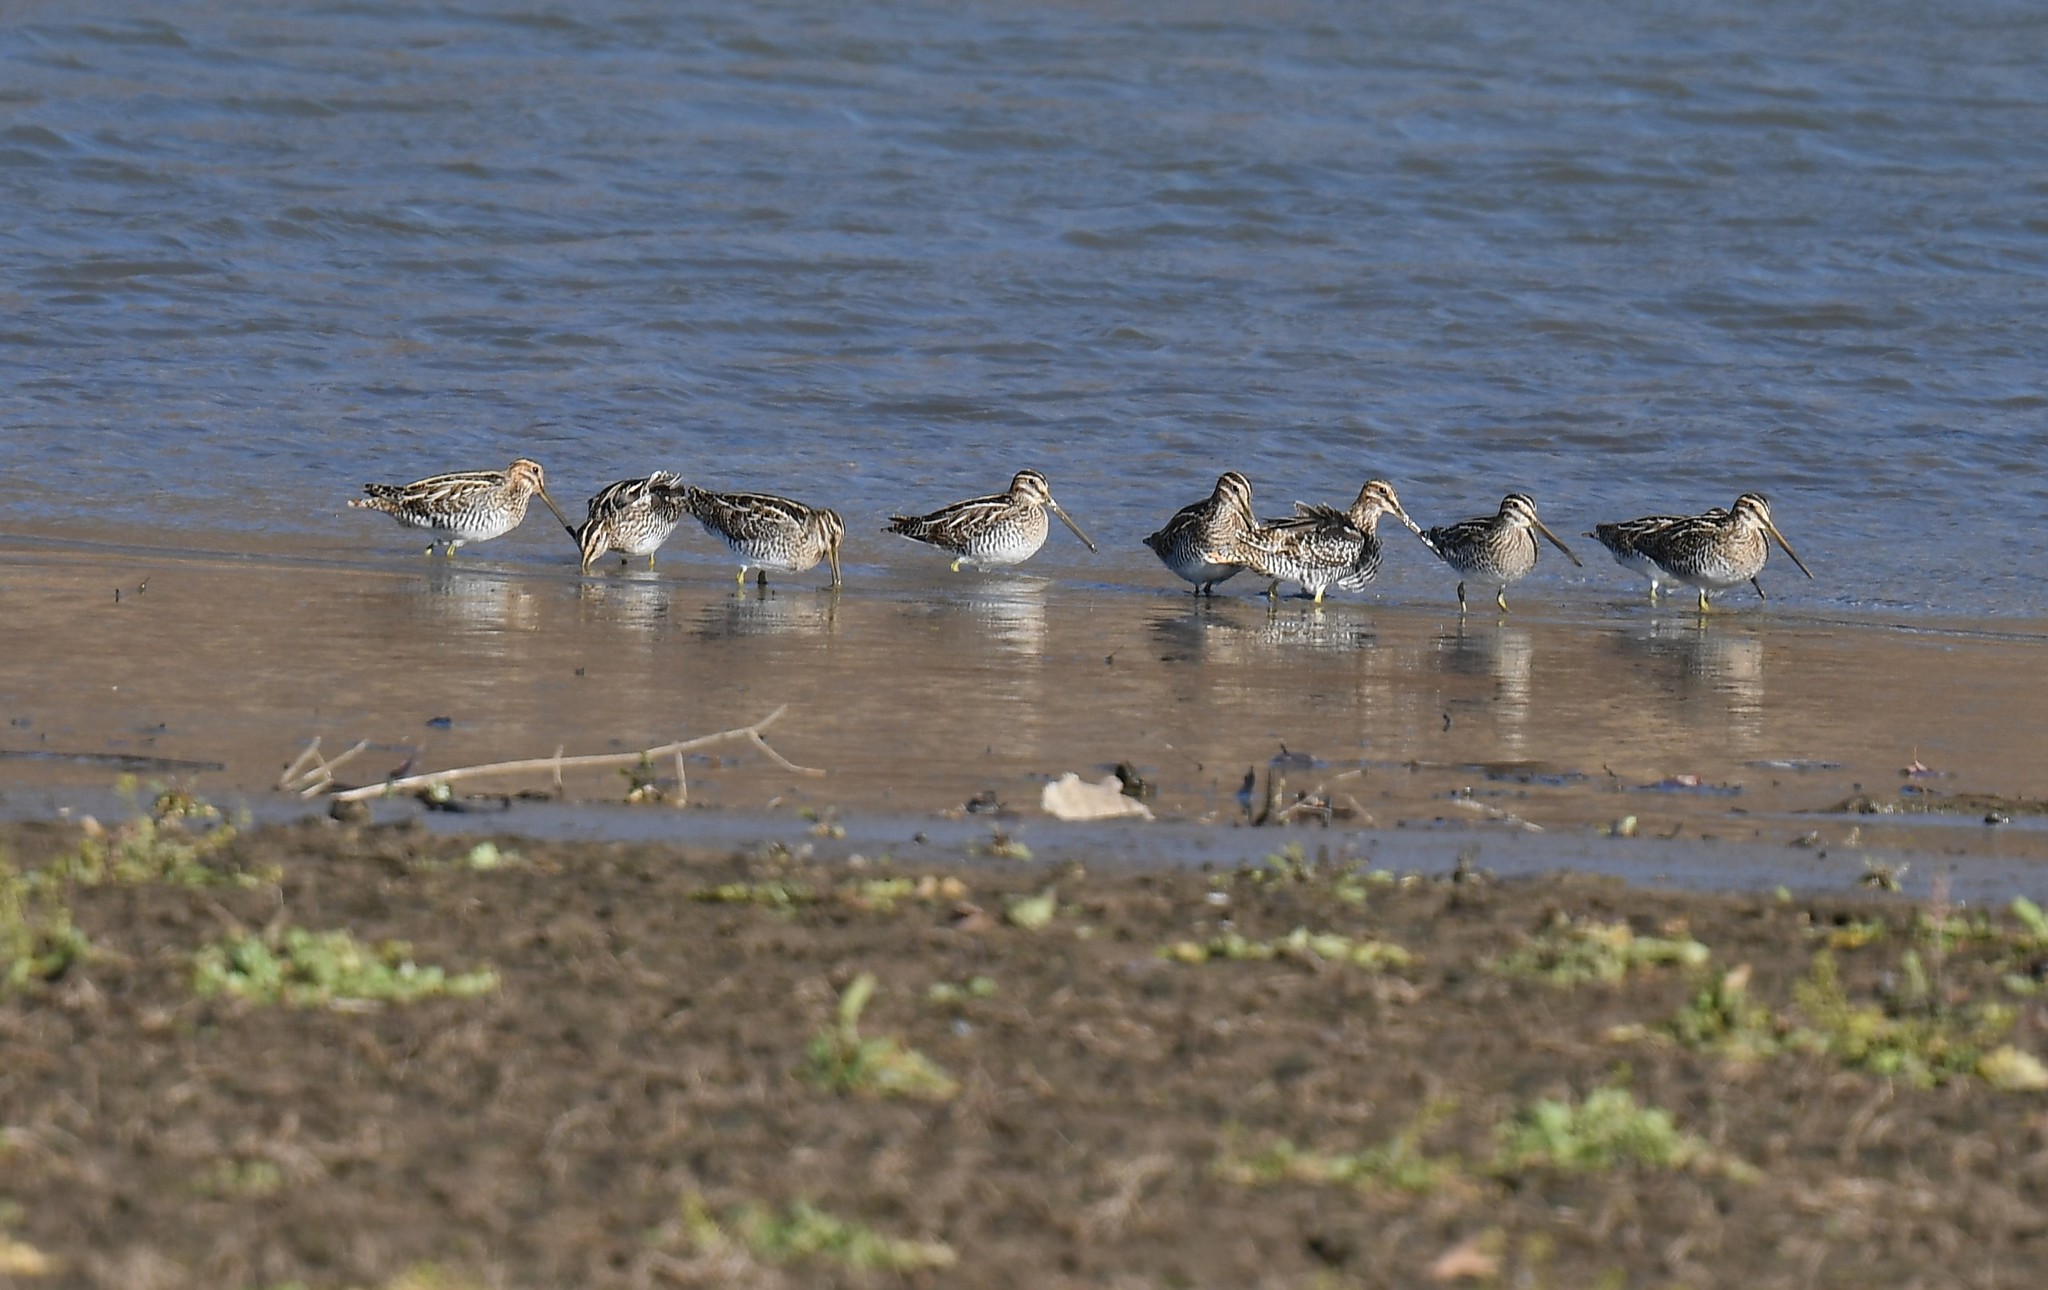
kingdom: Animalia
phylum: Chordata
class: Aves
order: Charadriiformes
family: Scolopacidae
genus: Gallinago
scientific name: Gallinago delicata
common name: Wilson's snipe
